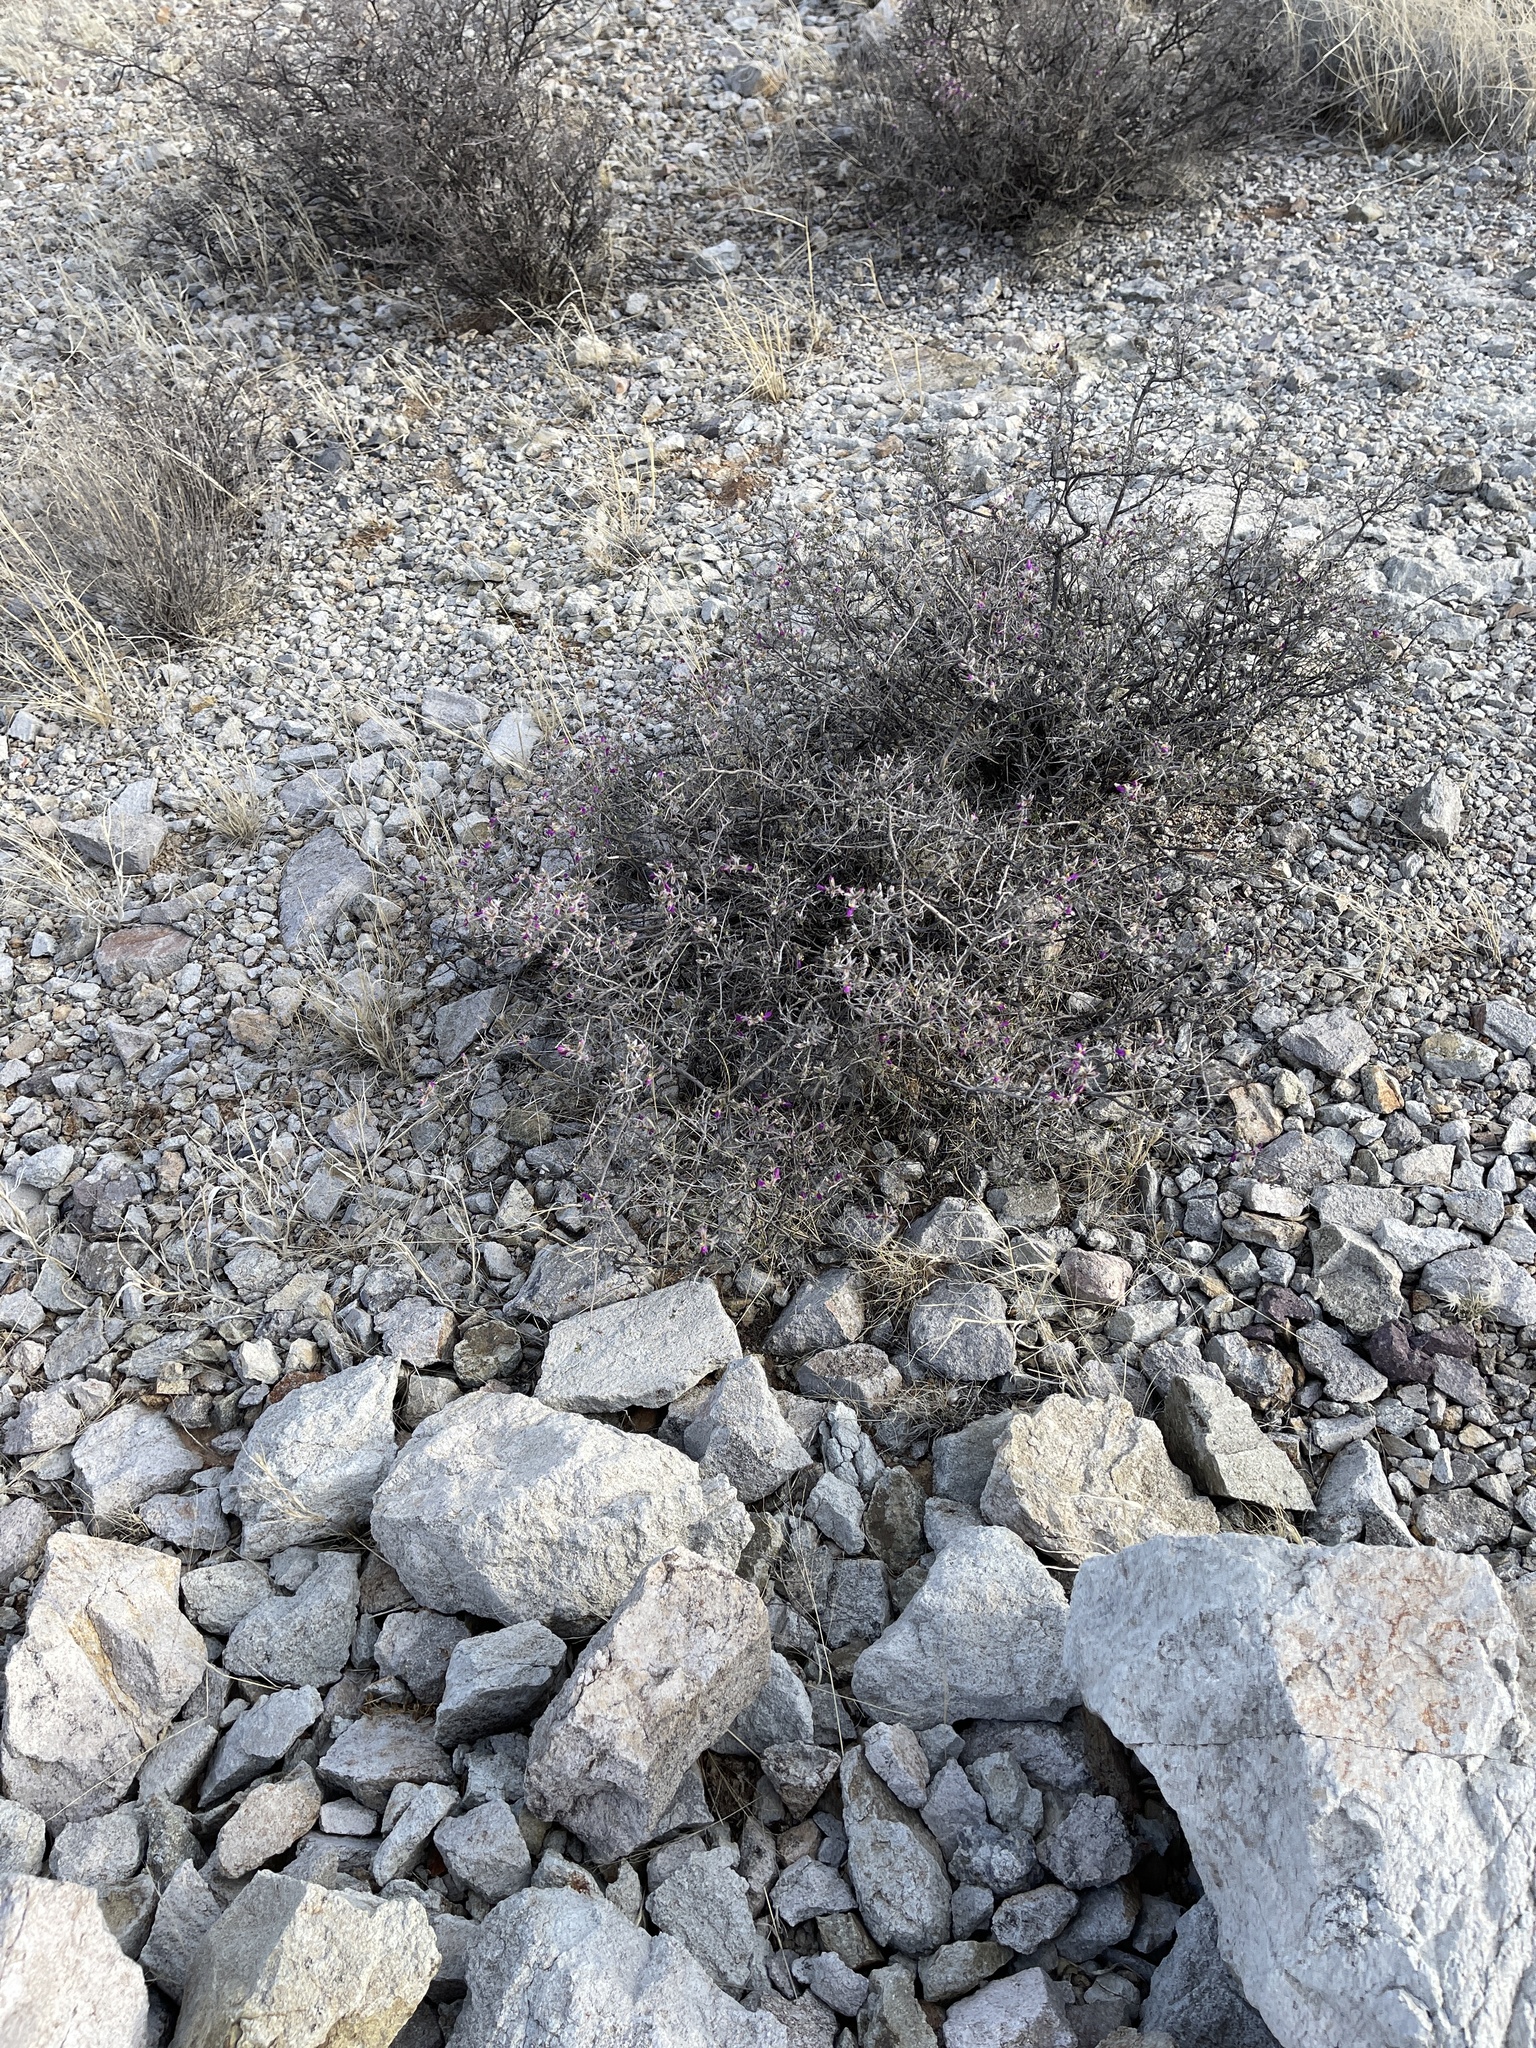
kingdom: Plantae
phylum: Tracheophyta
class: Magnoliopsida
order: Fabales
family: Fabaceae
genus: Dalea
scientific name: Dalea formosa
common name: Feather-plume dalea
